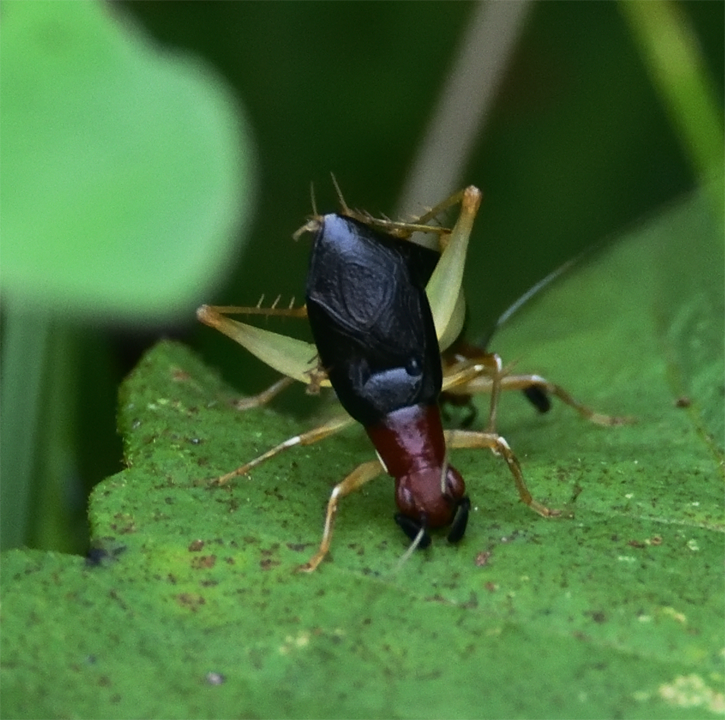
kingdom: Animalia
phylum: Arthropoda
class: Insecta
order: Orthoptera
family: Trigonidiidae
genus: Phyllopalpus
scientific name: Phyllopalpus pulchellus
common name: Handsome trig
